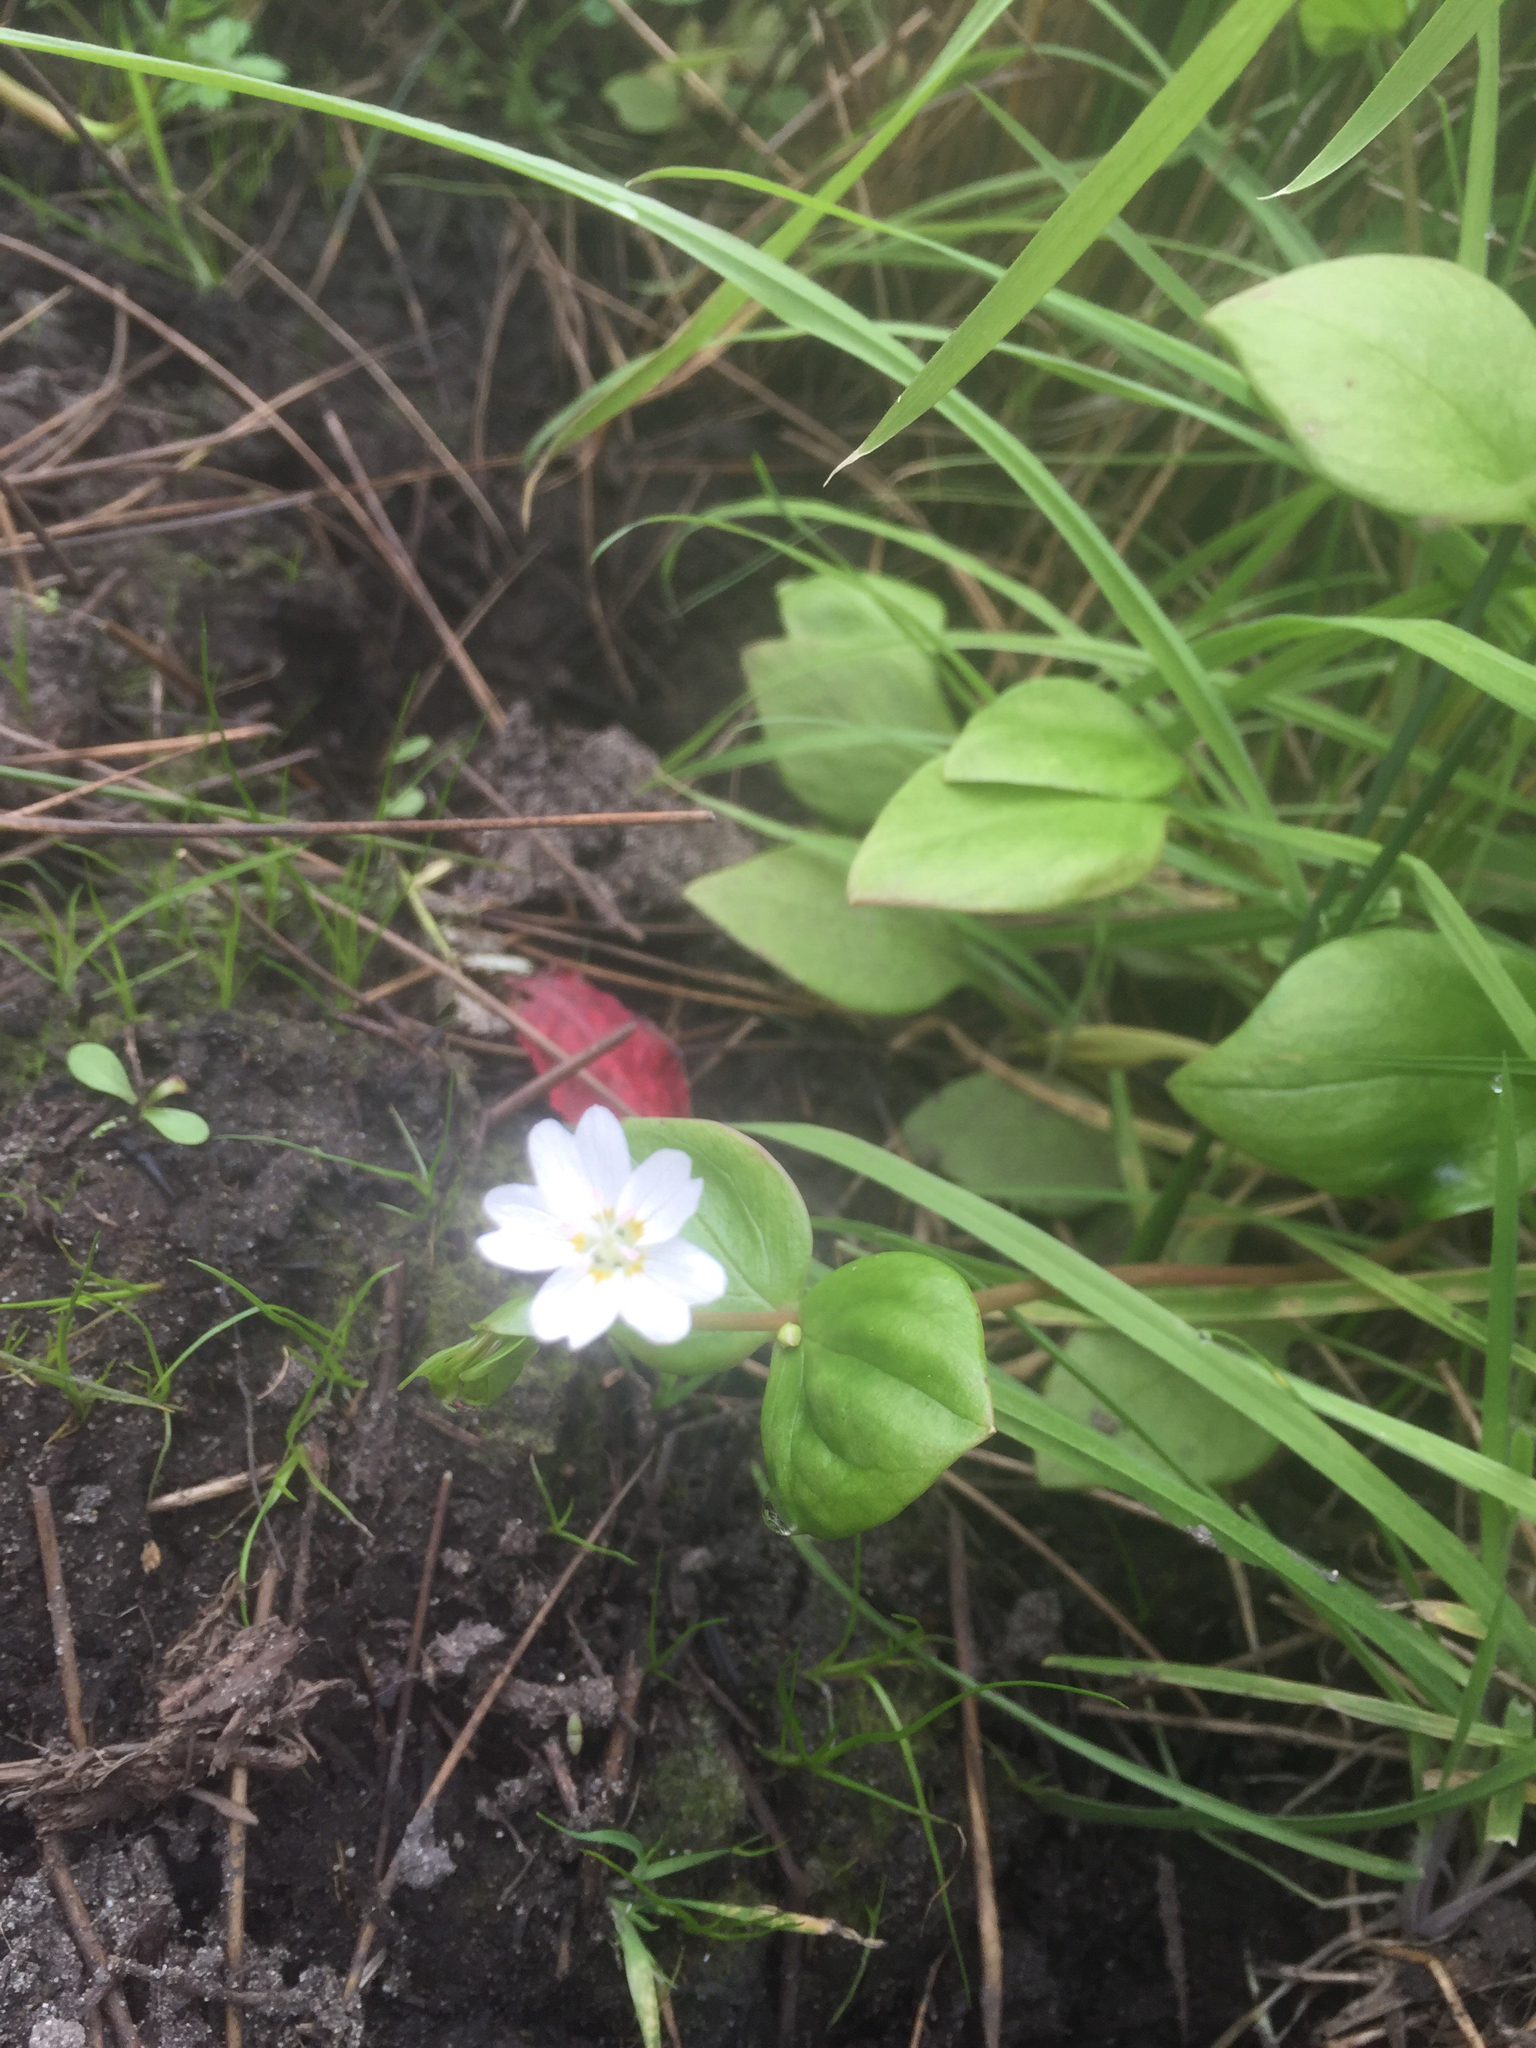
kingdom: Plantae
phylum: Tracheophyta
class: Magnoliopsida
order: Caryophyllales
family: Montiaceae
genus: Claytonia
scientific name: Claytonia sibirica
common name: Pink purslane
